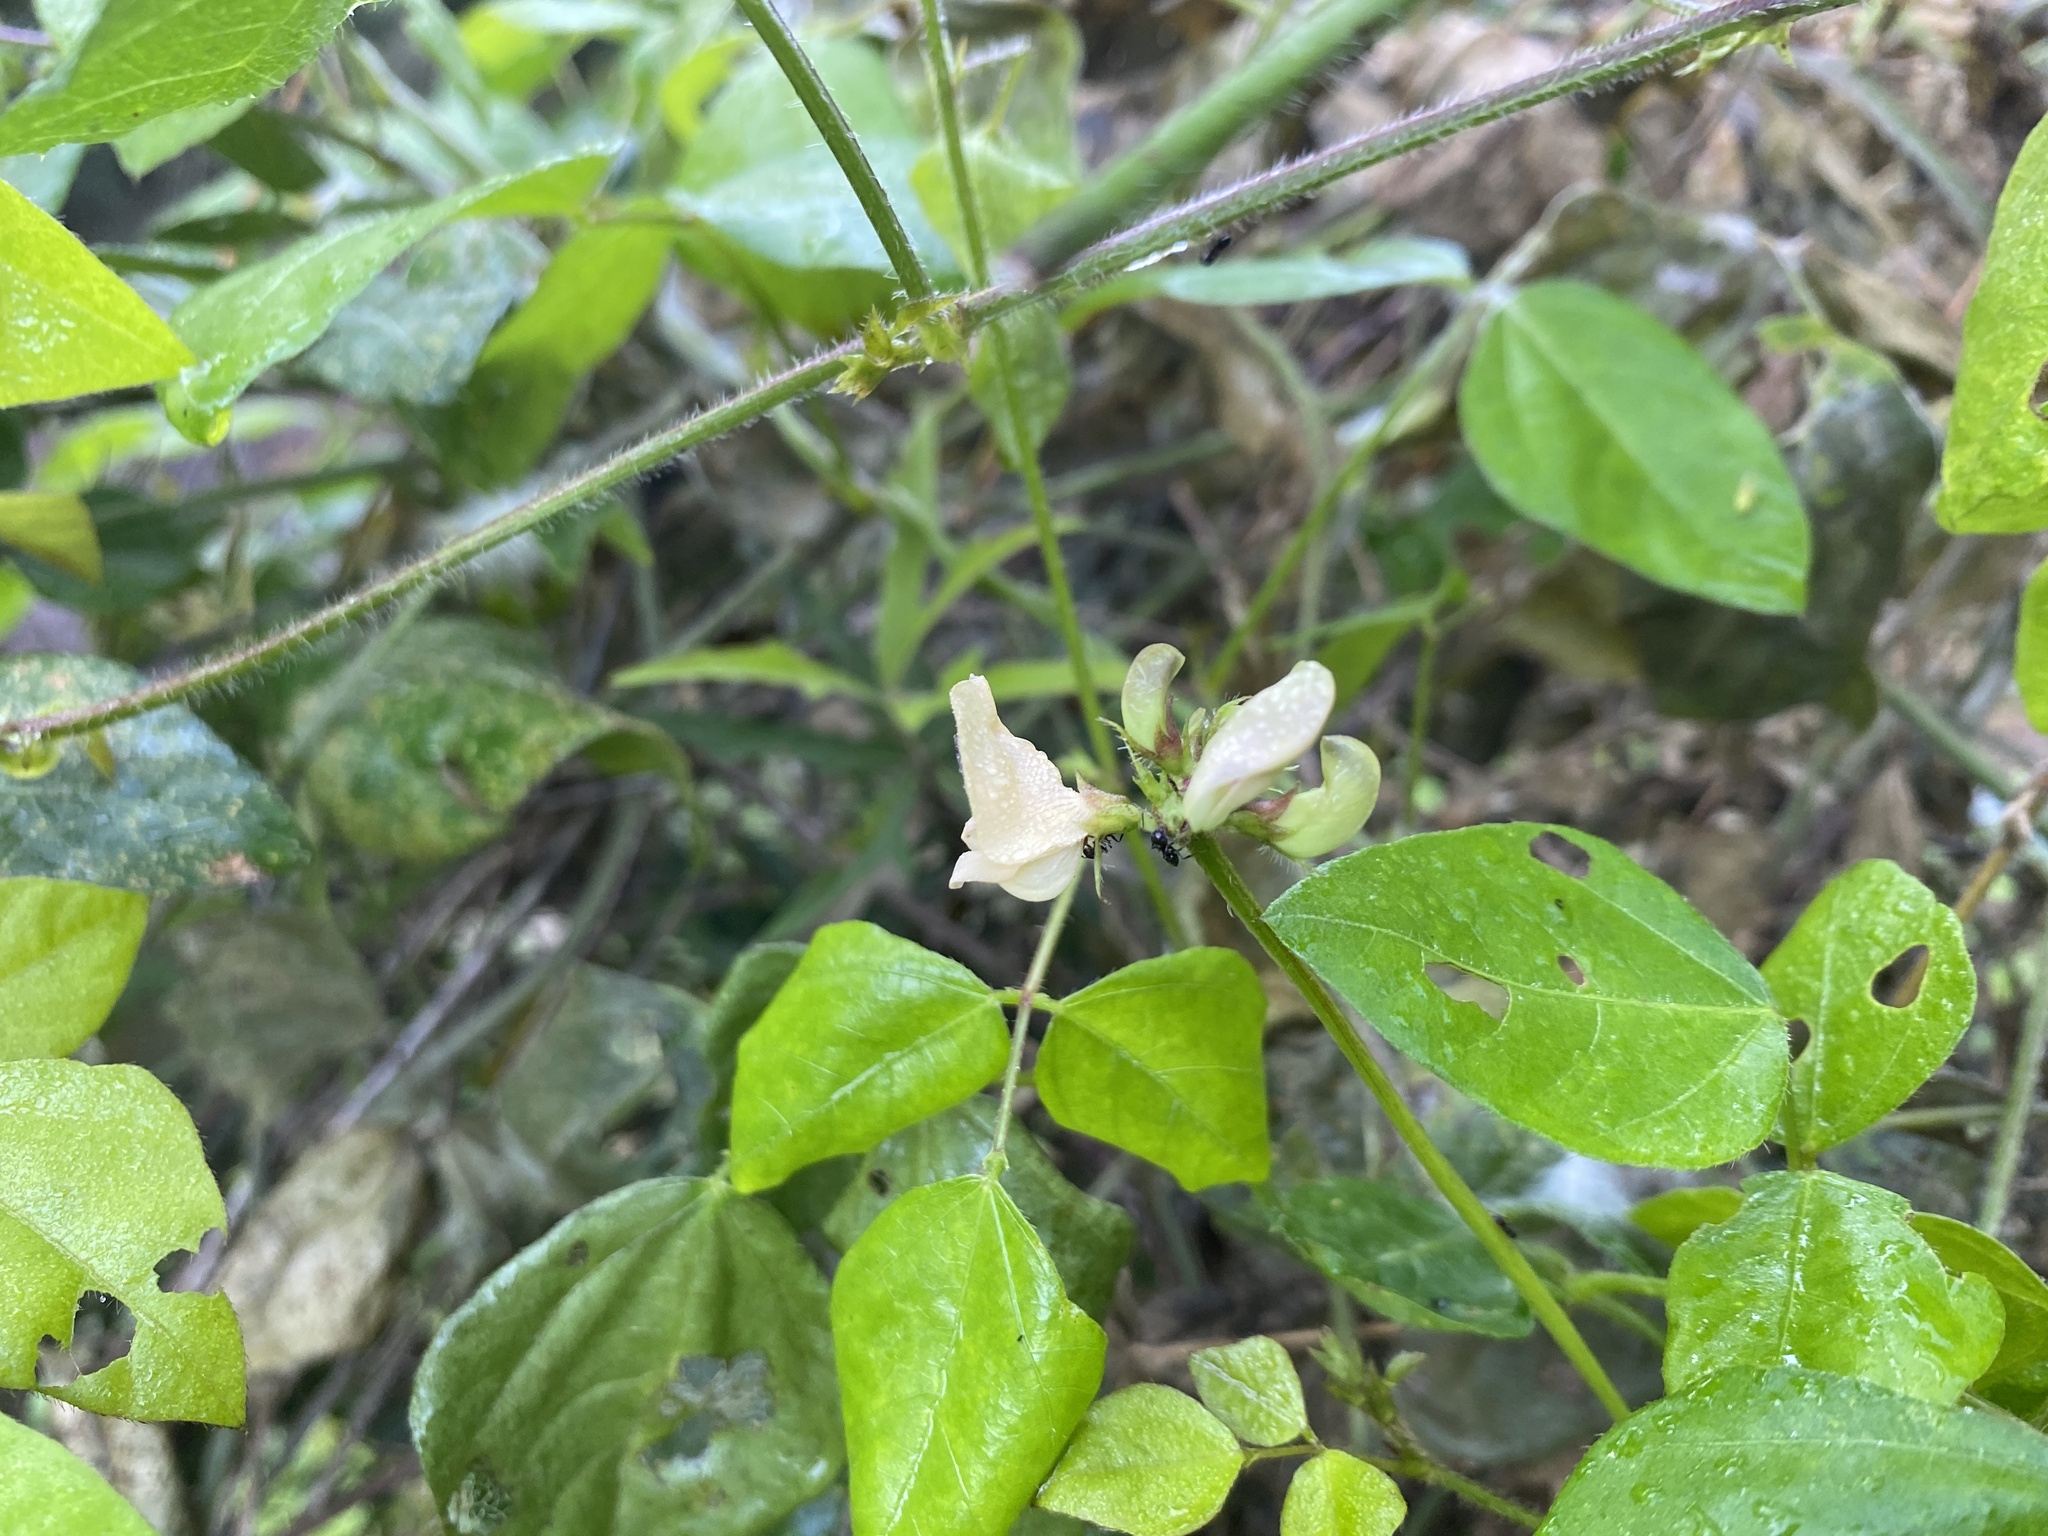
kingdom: Plantae
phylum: Tracheophyta
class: Magnoliopsida
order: Fabales
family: Fabaceae
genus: Strophostyles
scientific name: Strophostyles helvola
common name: Trailing wild bean
